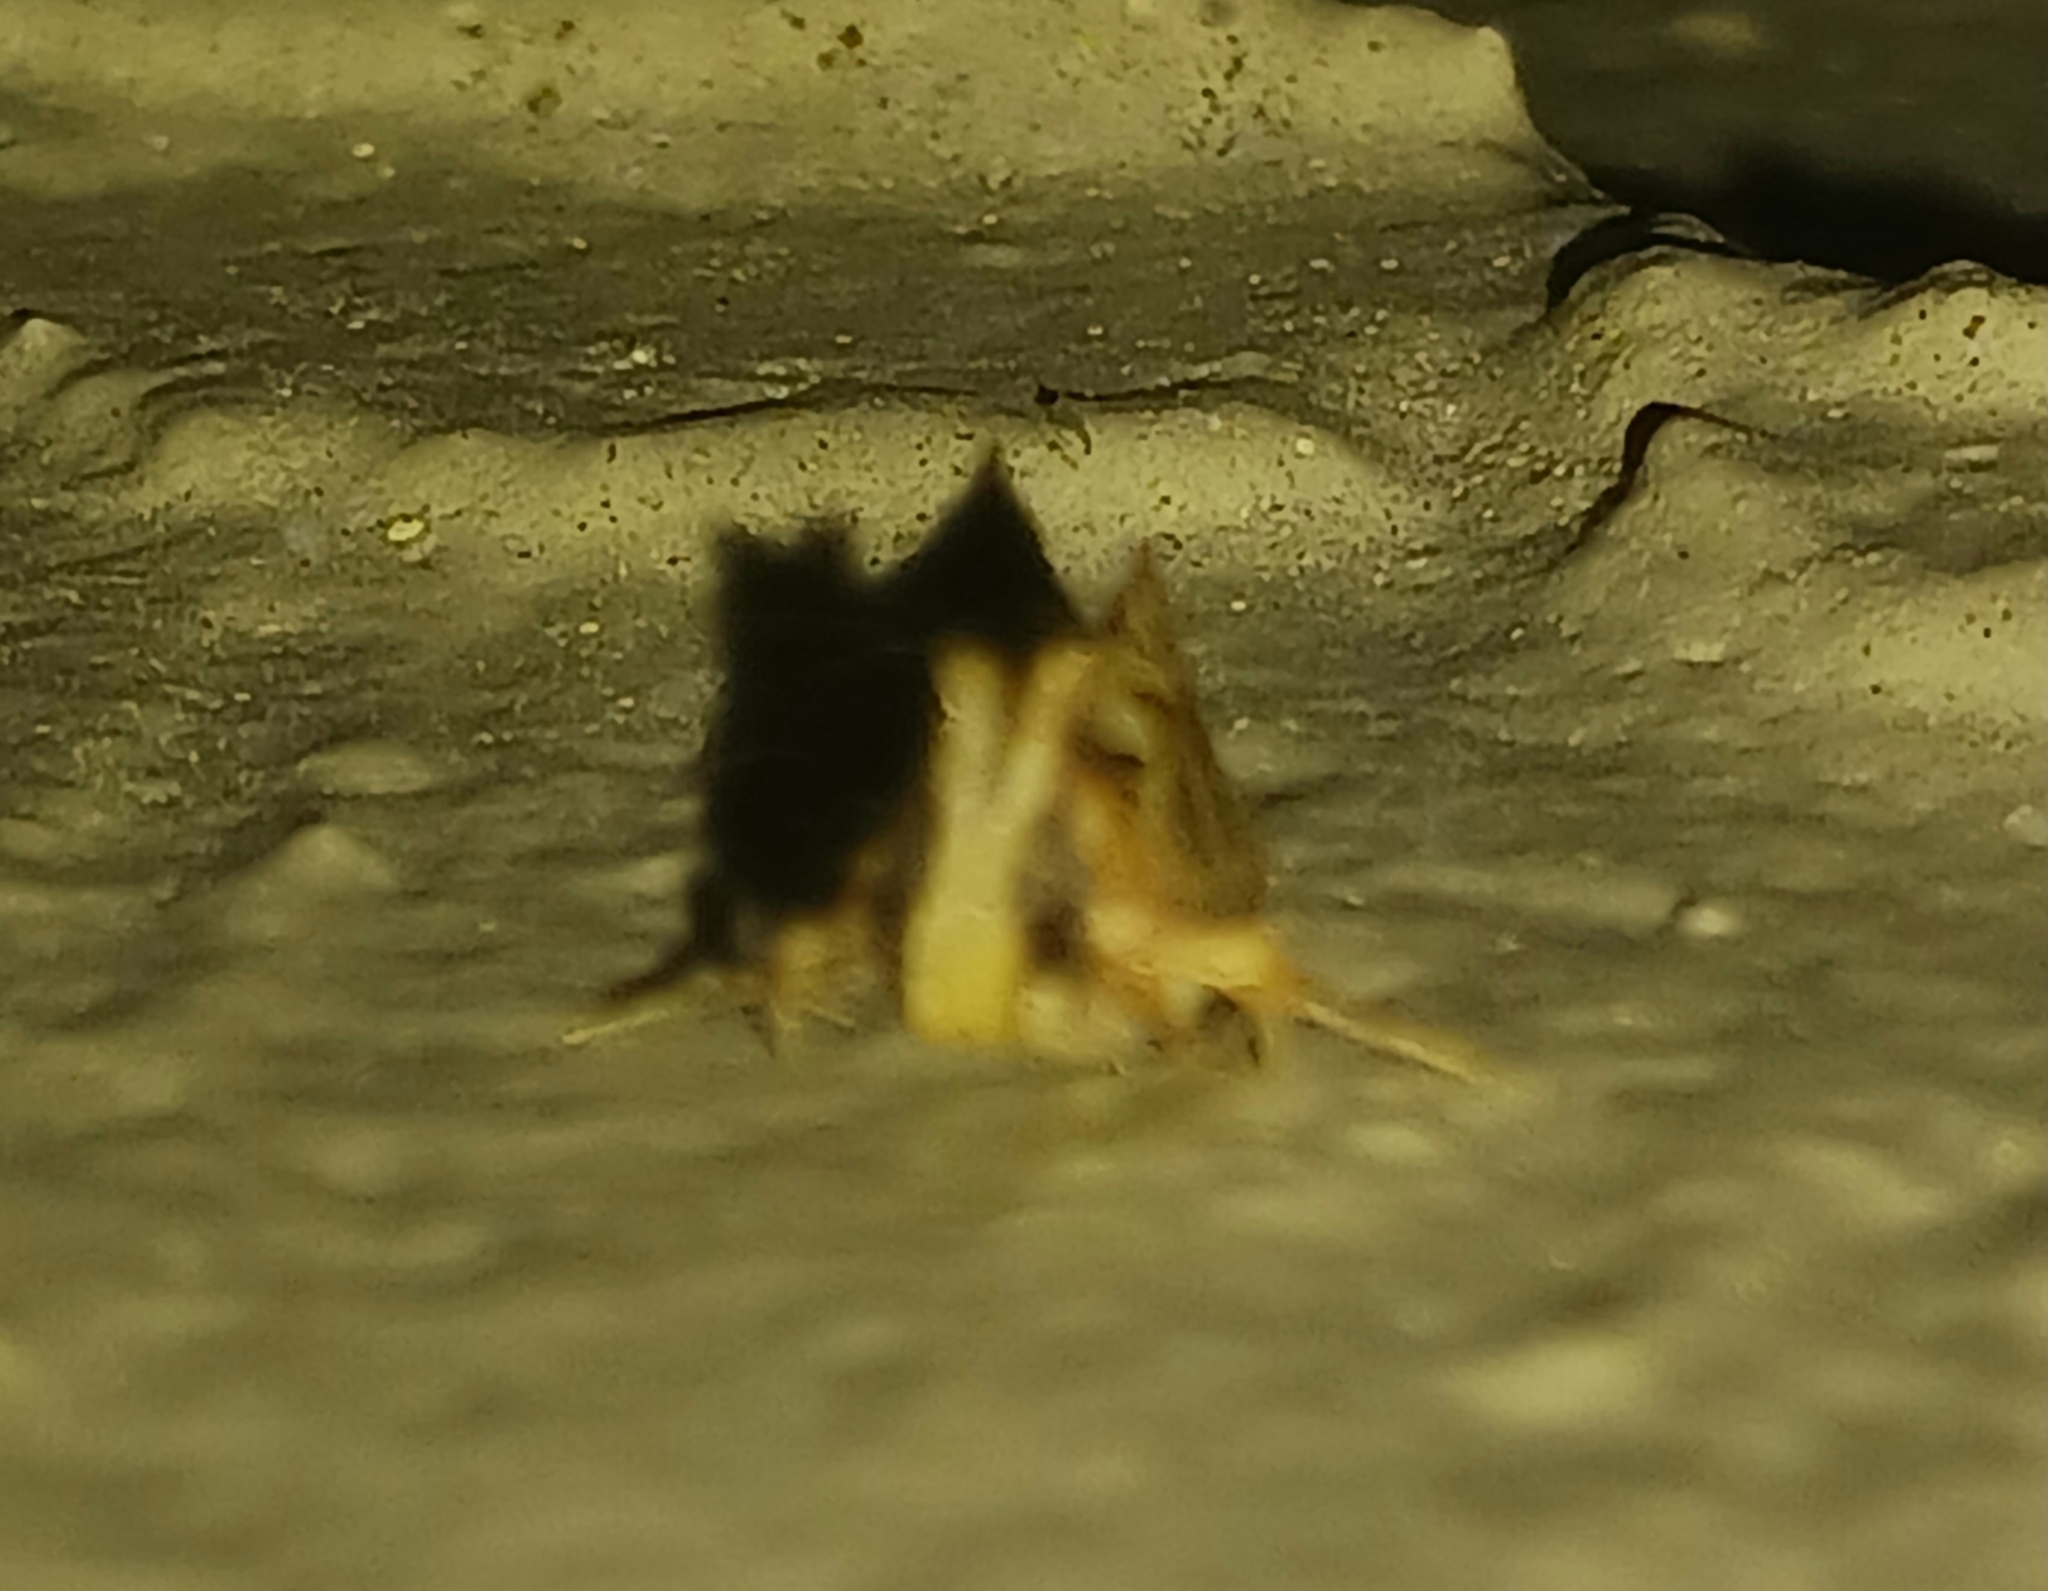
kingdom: Animalia
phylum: Arthropoda
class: Insecta
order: Lepidoptera
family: Tineidae
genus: Acrolophus
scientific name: Acrolophus walsinghami
